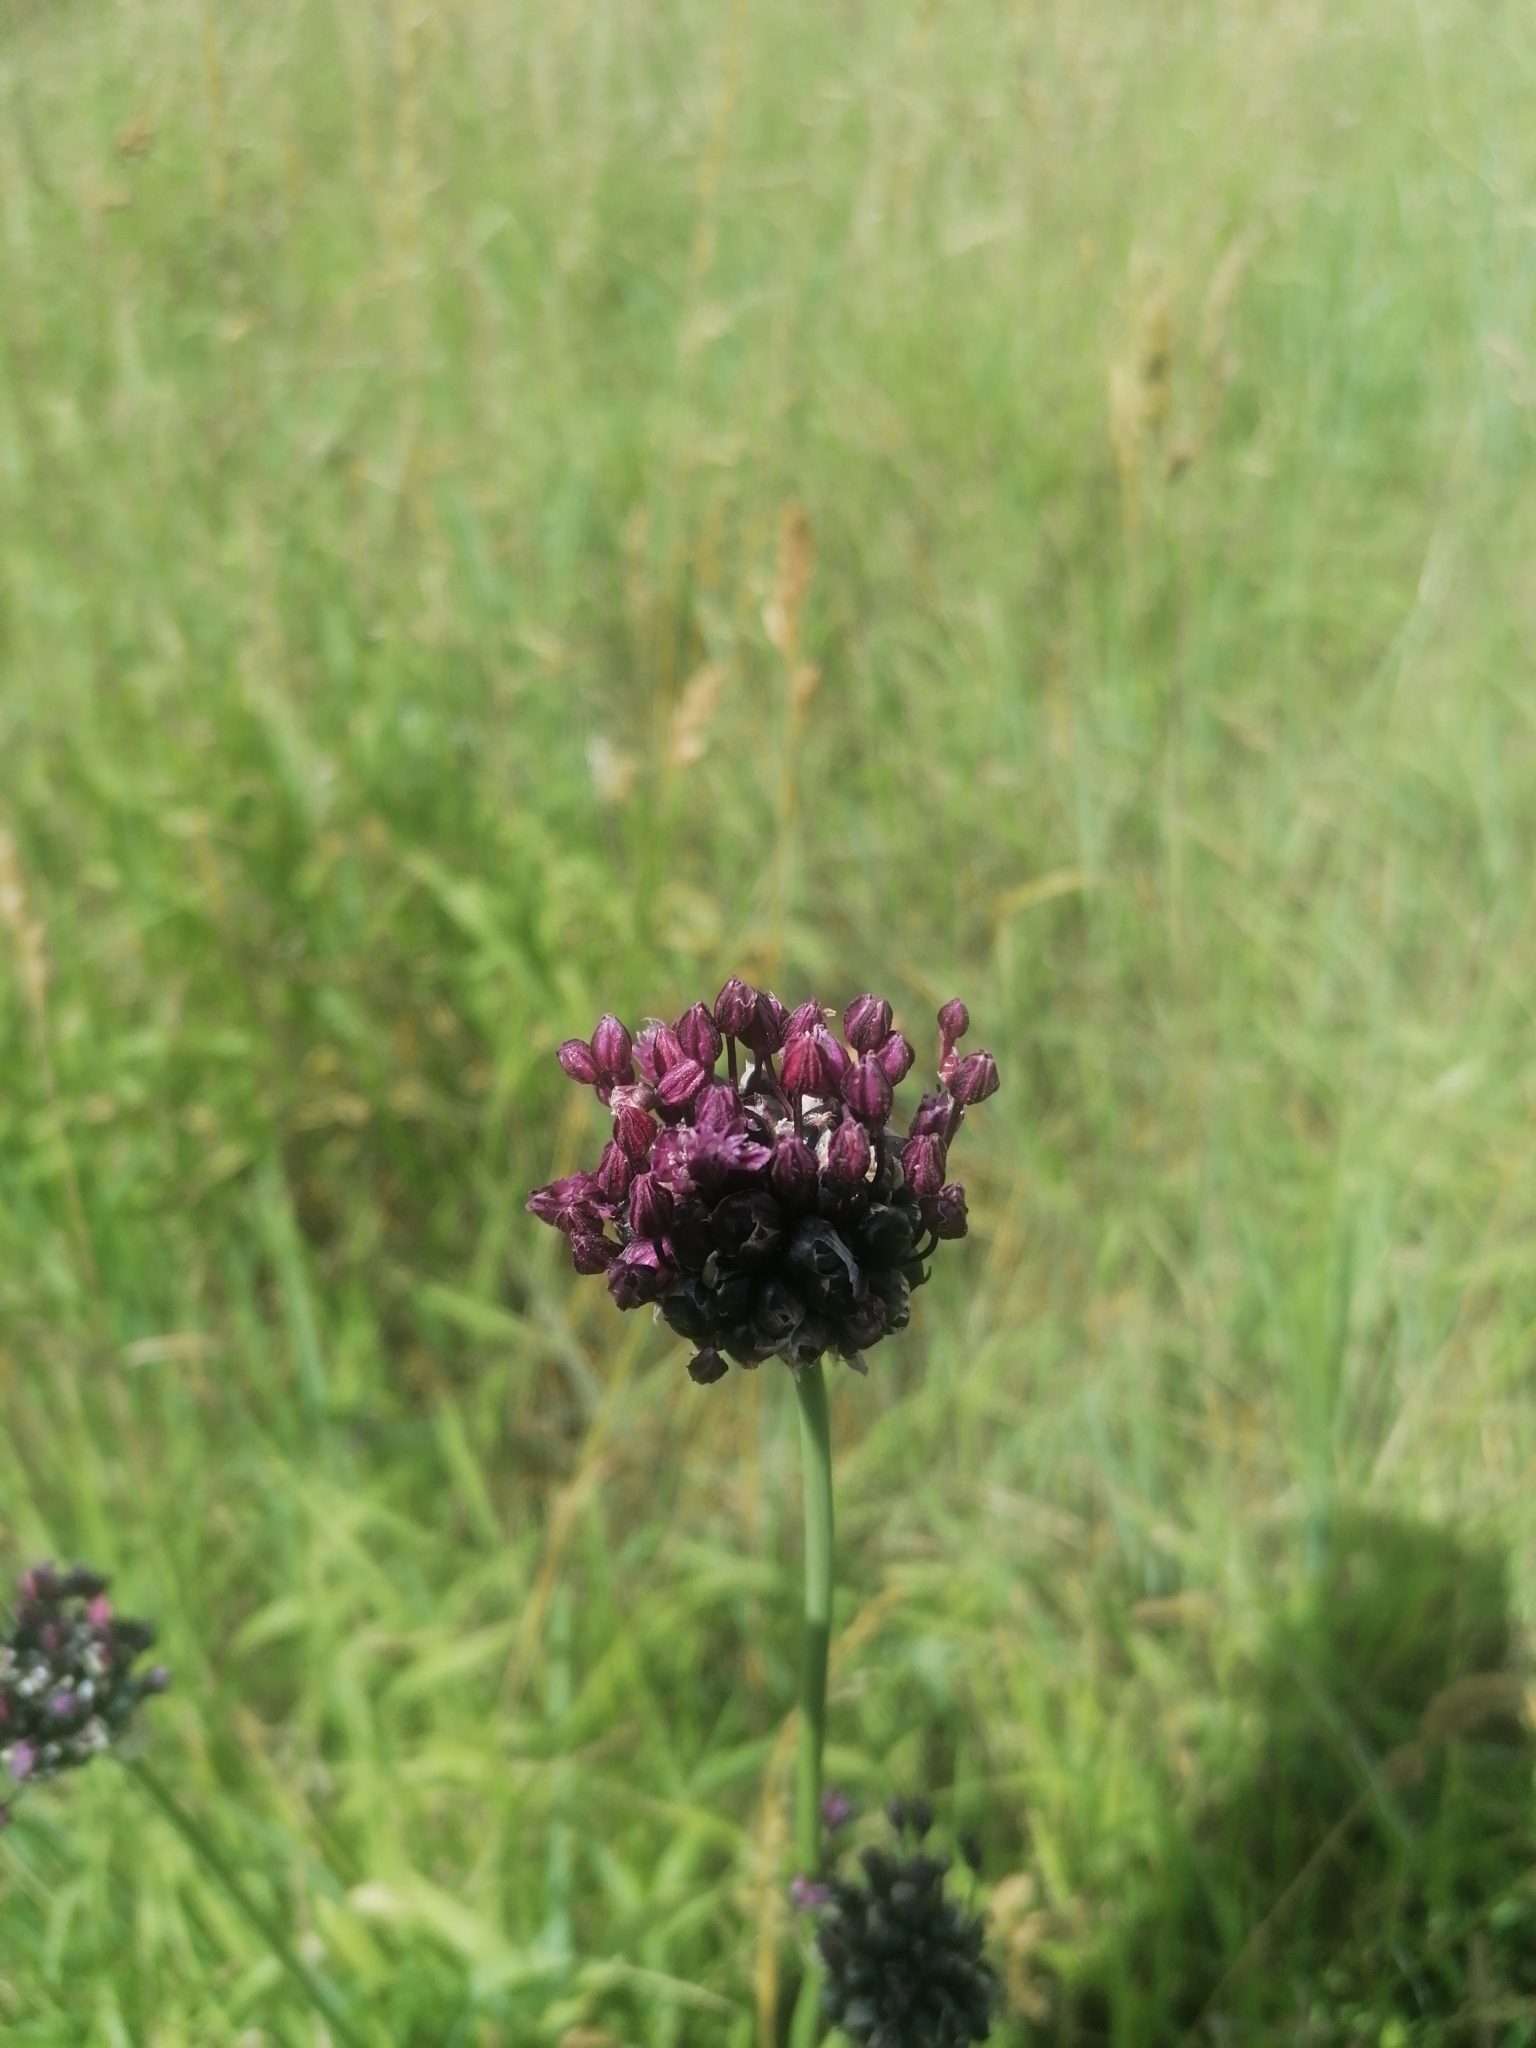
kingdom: Plantae
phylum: Tracheophyta
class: Liliopsida
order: Asparagales
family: Amaryllidaceae
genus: Allium
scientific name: Allium scorodoprasum
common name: Sand leek
